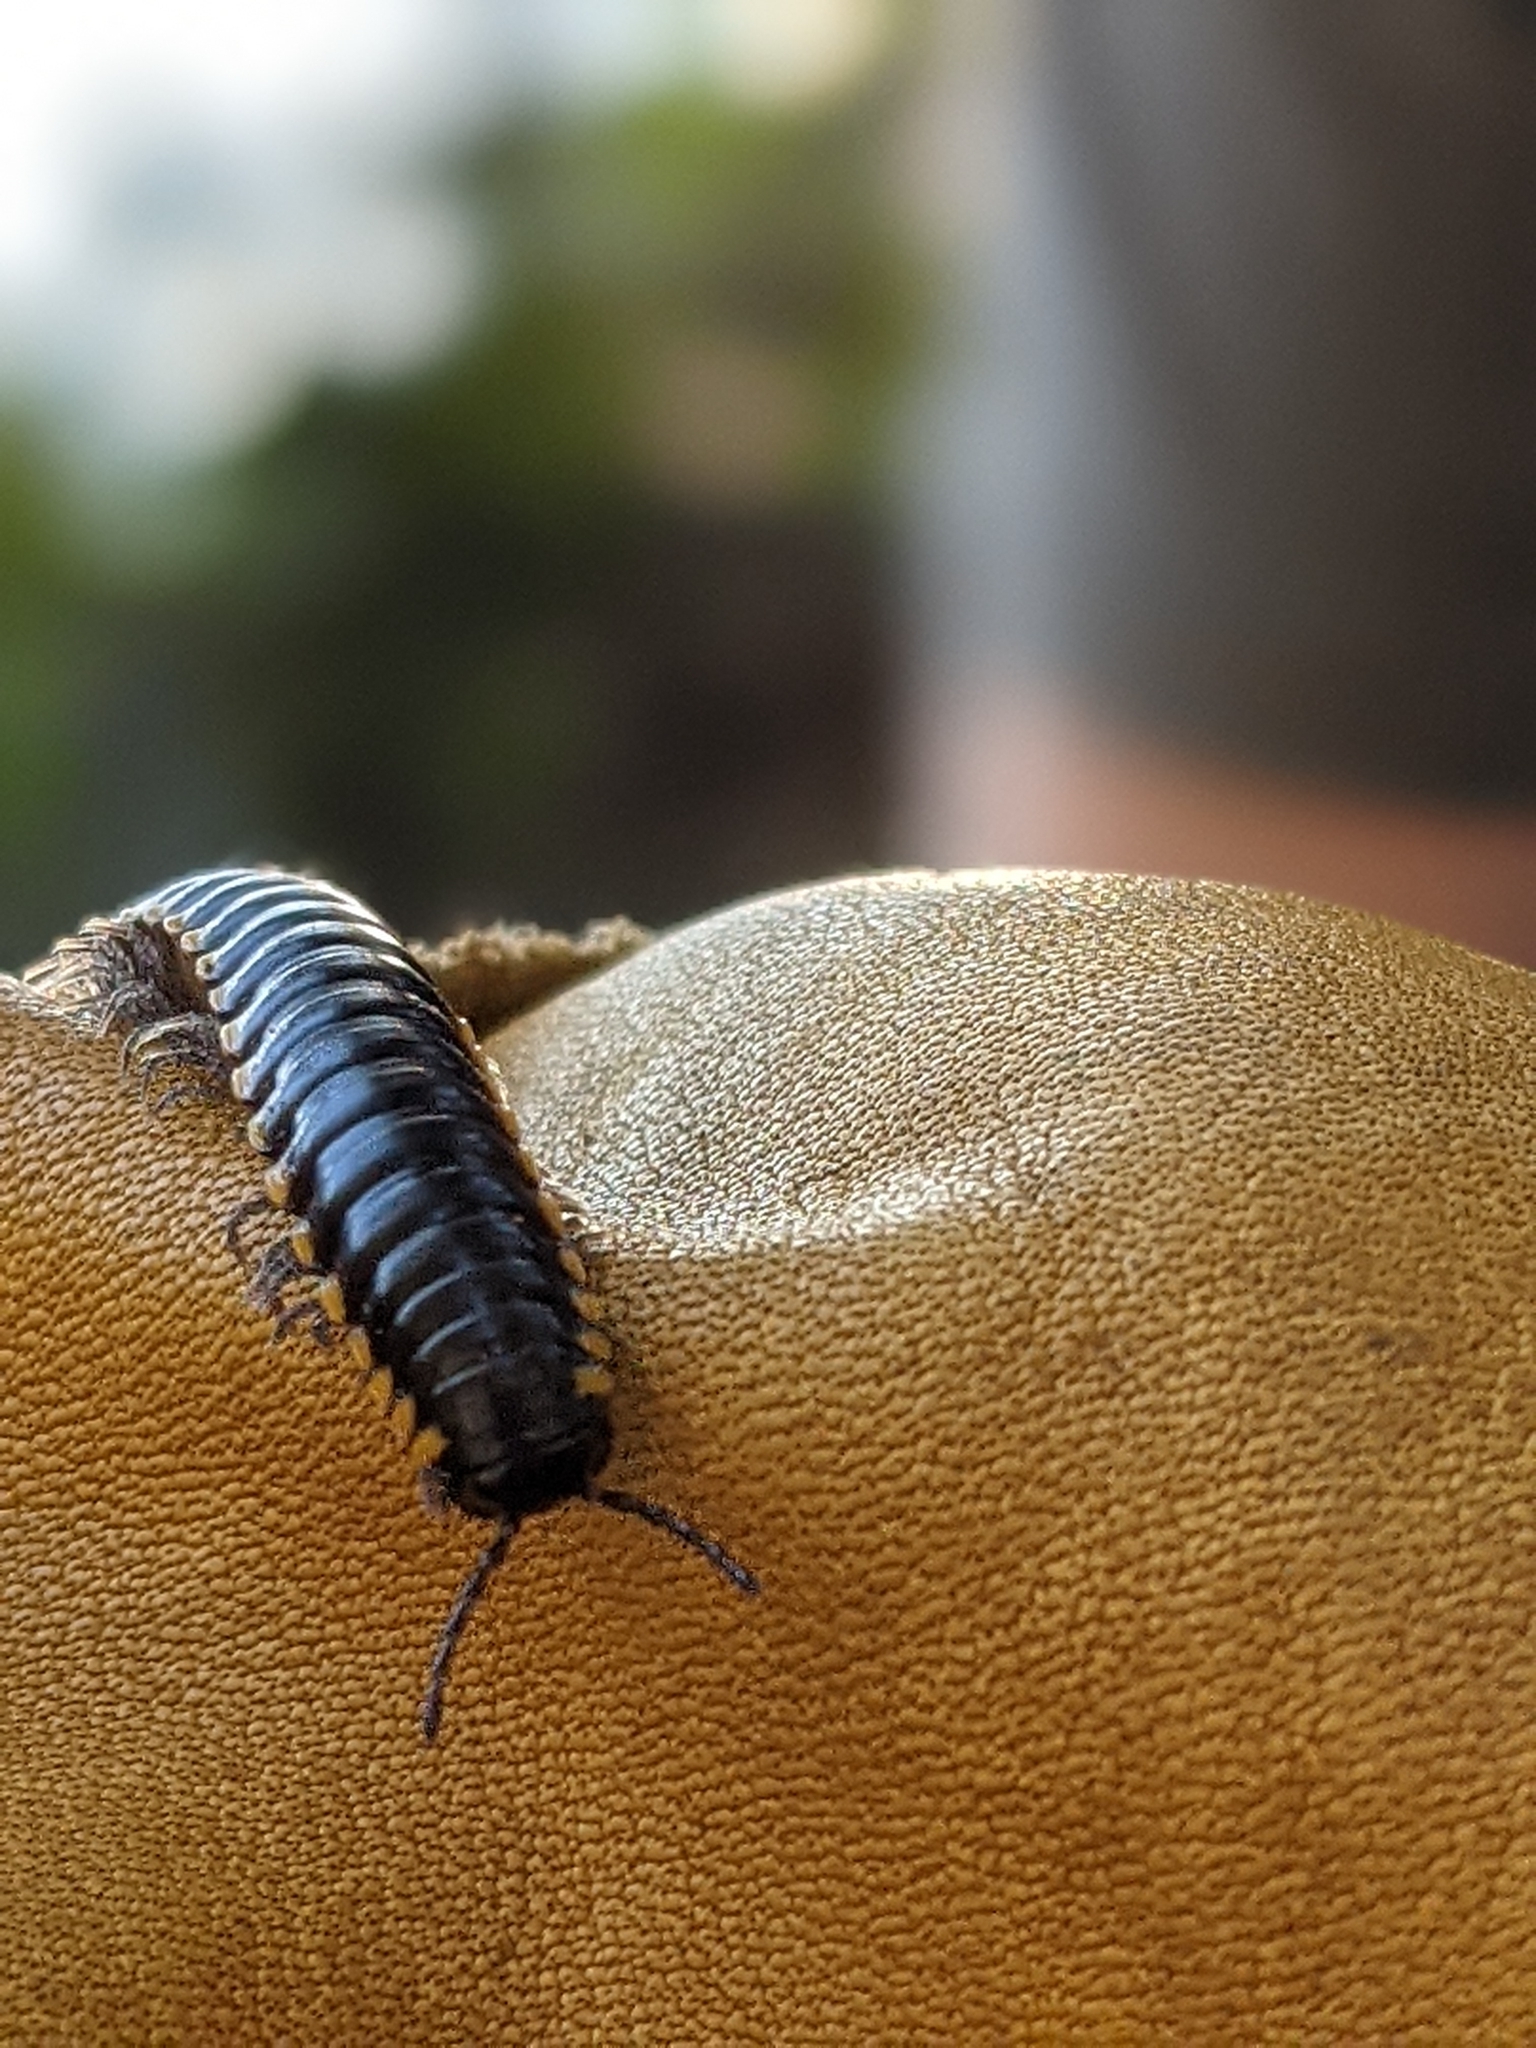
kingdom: Animalia
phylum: Arthropoda
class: Diplopoda
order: Polydesmida
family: Xystodesmidae
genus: Harpaphe
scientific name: Harpaphe haydeniana
